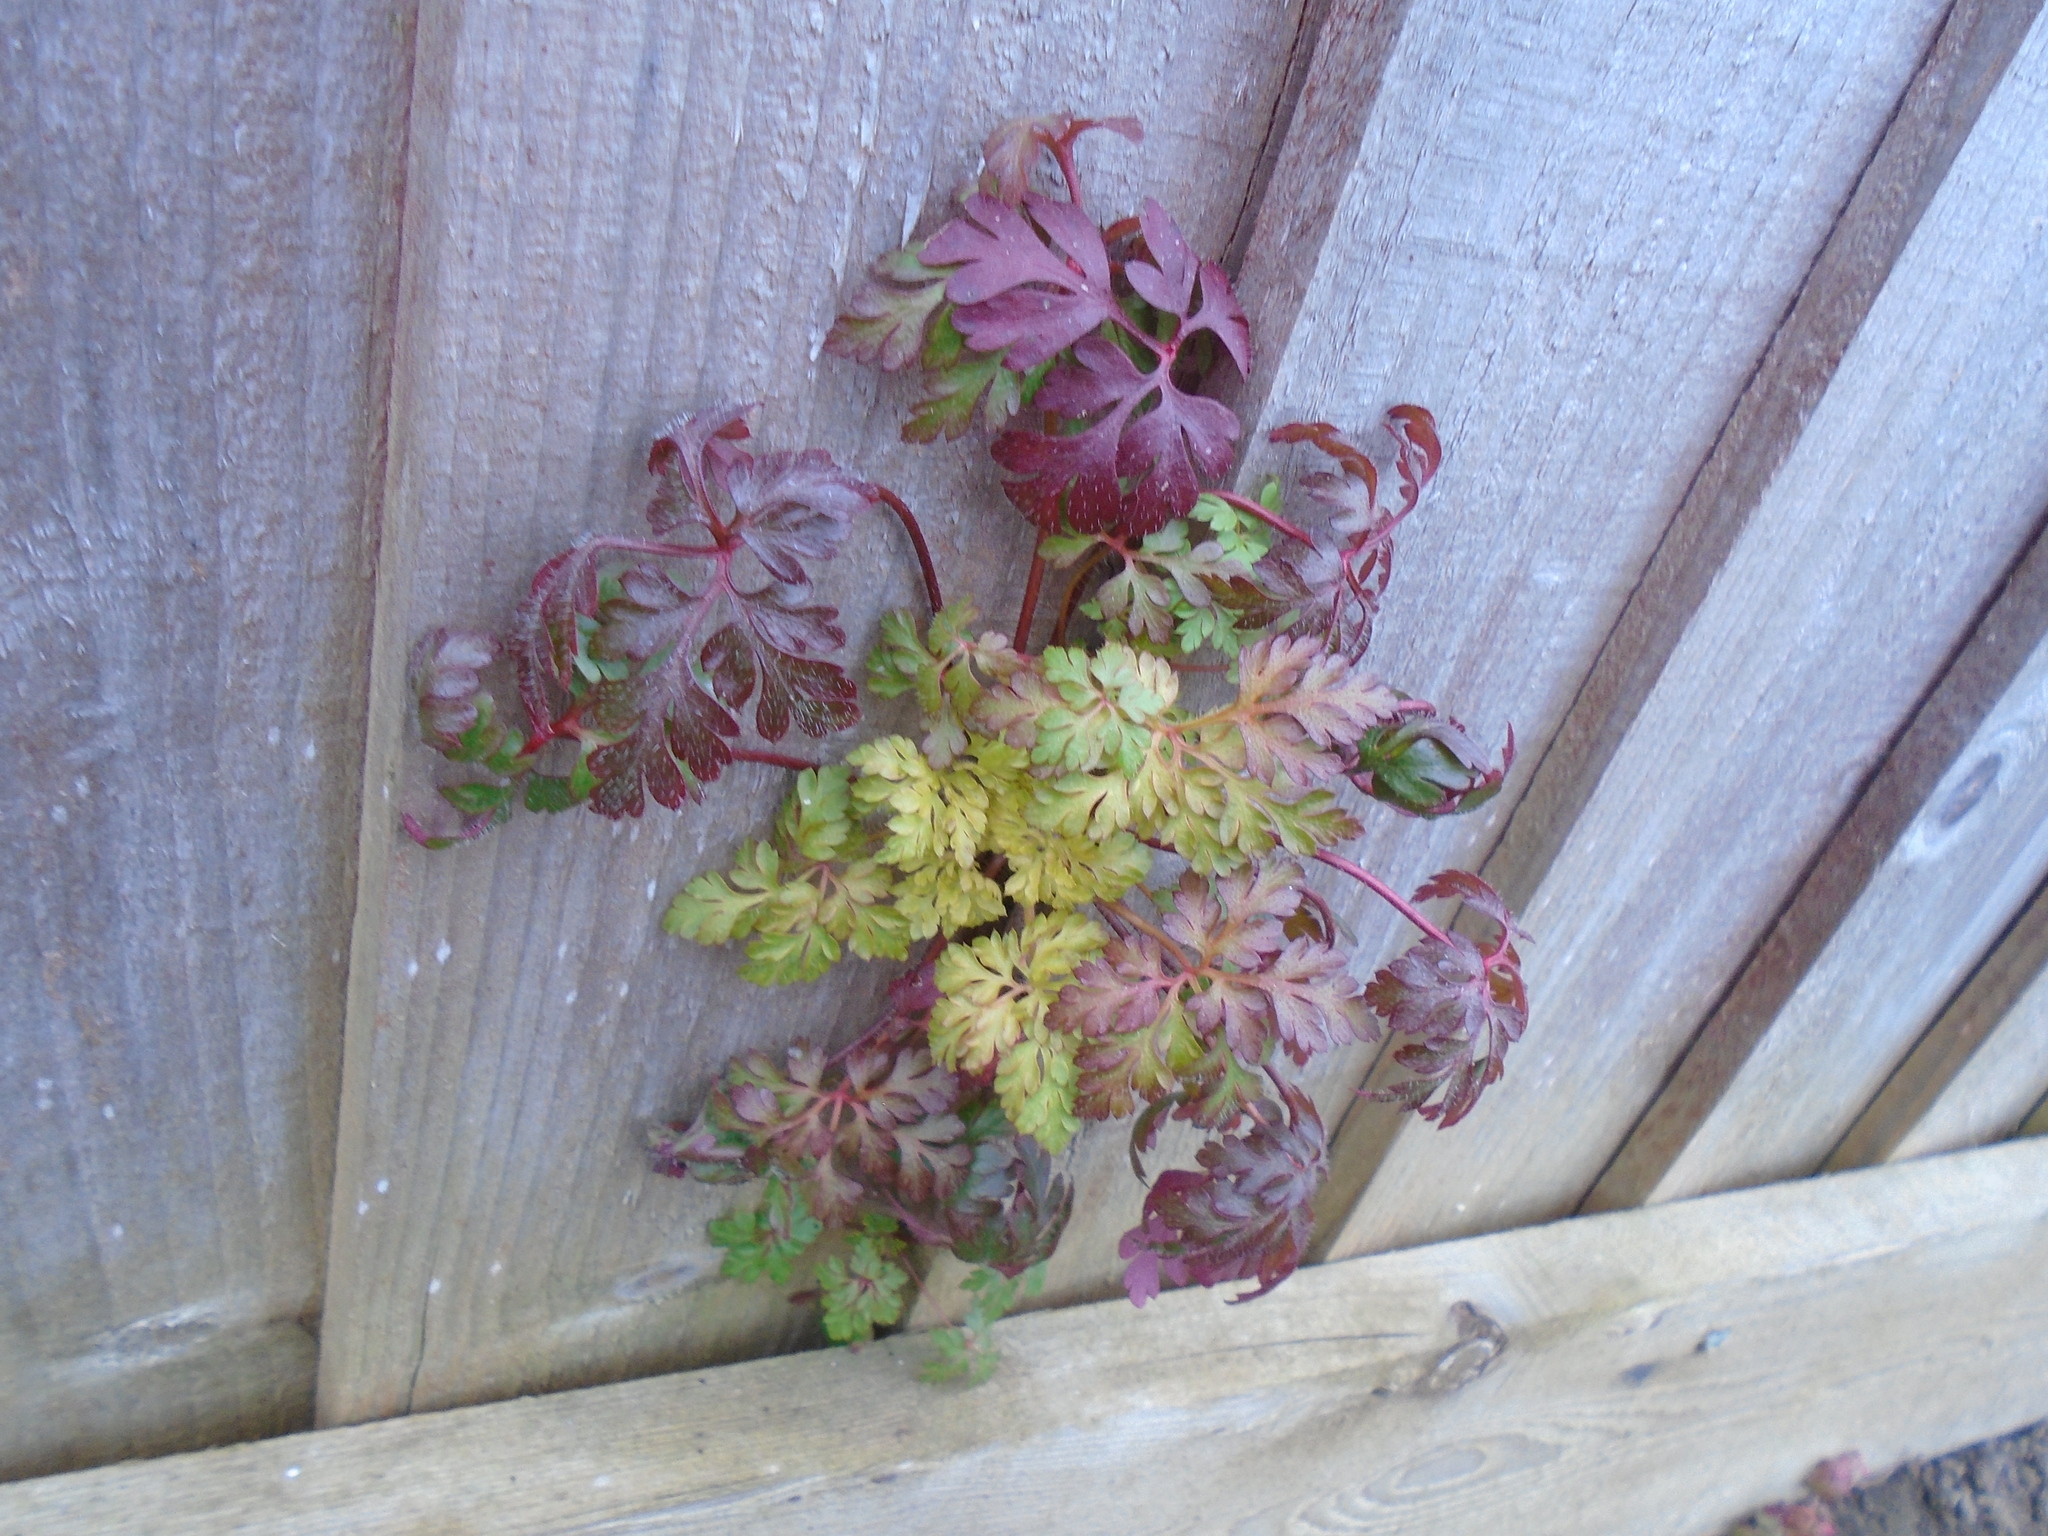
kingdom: Plantae
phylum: Tracheophyta
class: Magnoliopsida
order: Geraniales
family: Geraniaceae
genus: Geranium
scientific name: Geranium robertianum
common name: Herb-robert
